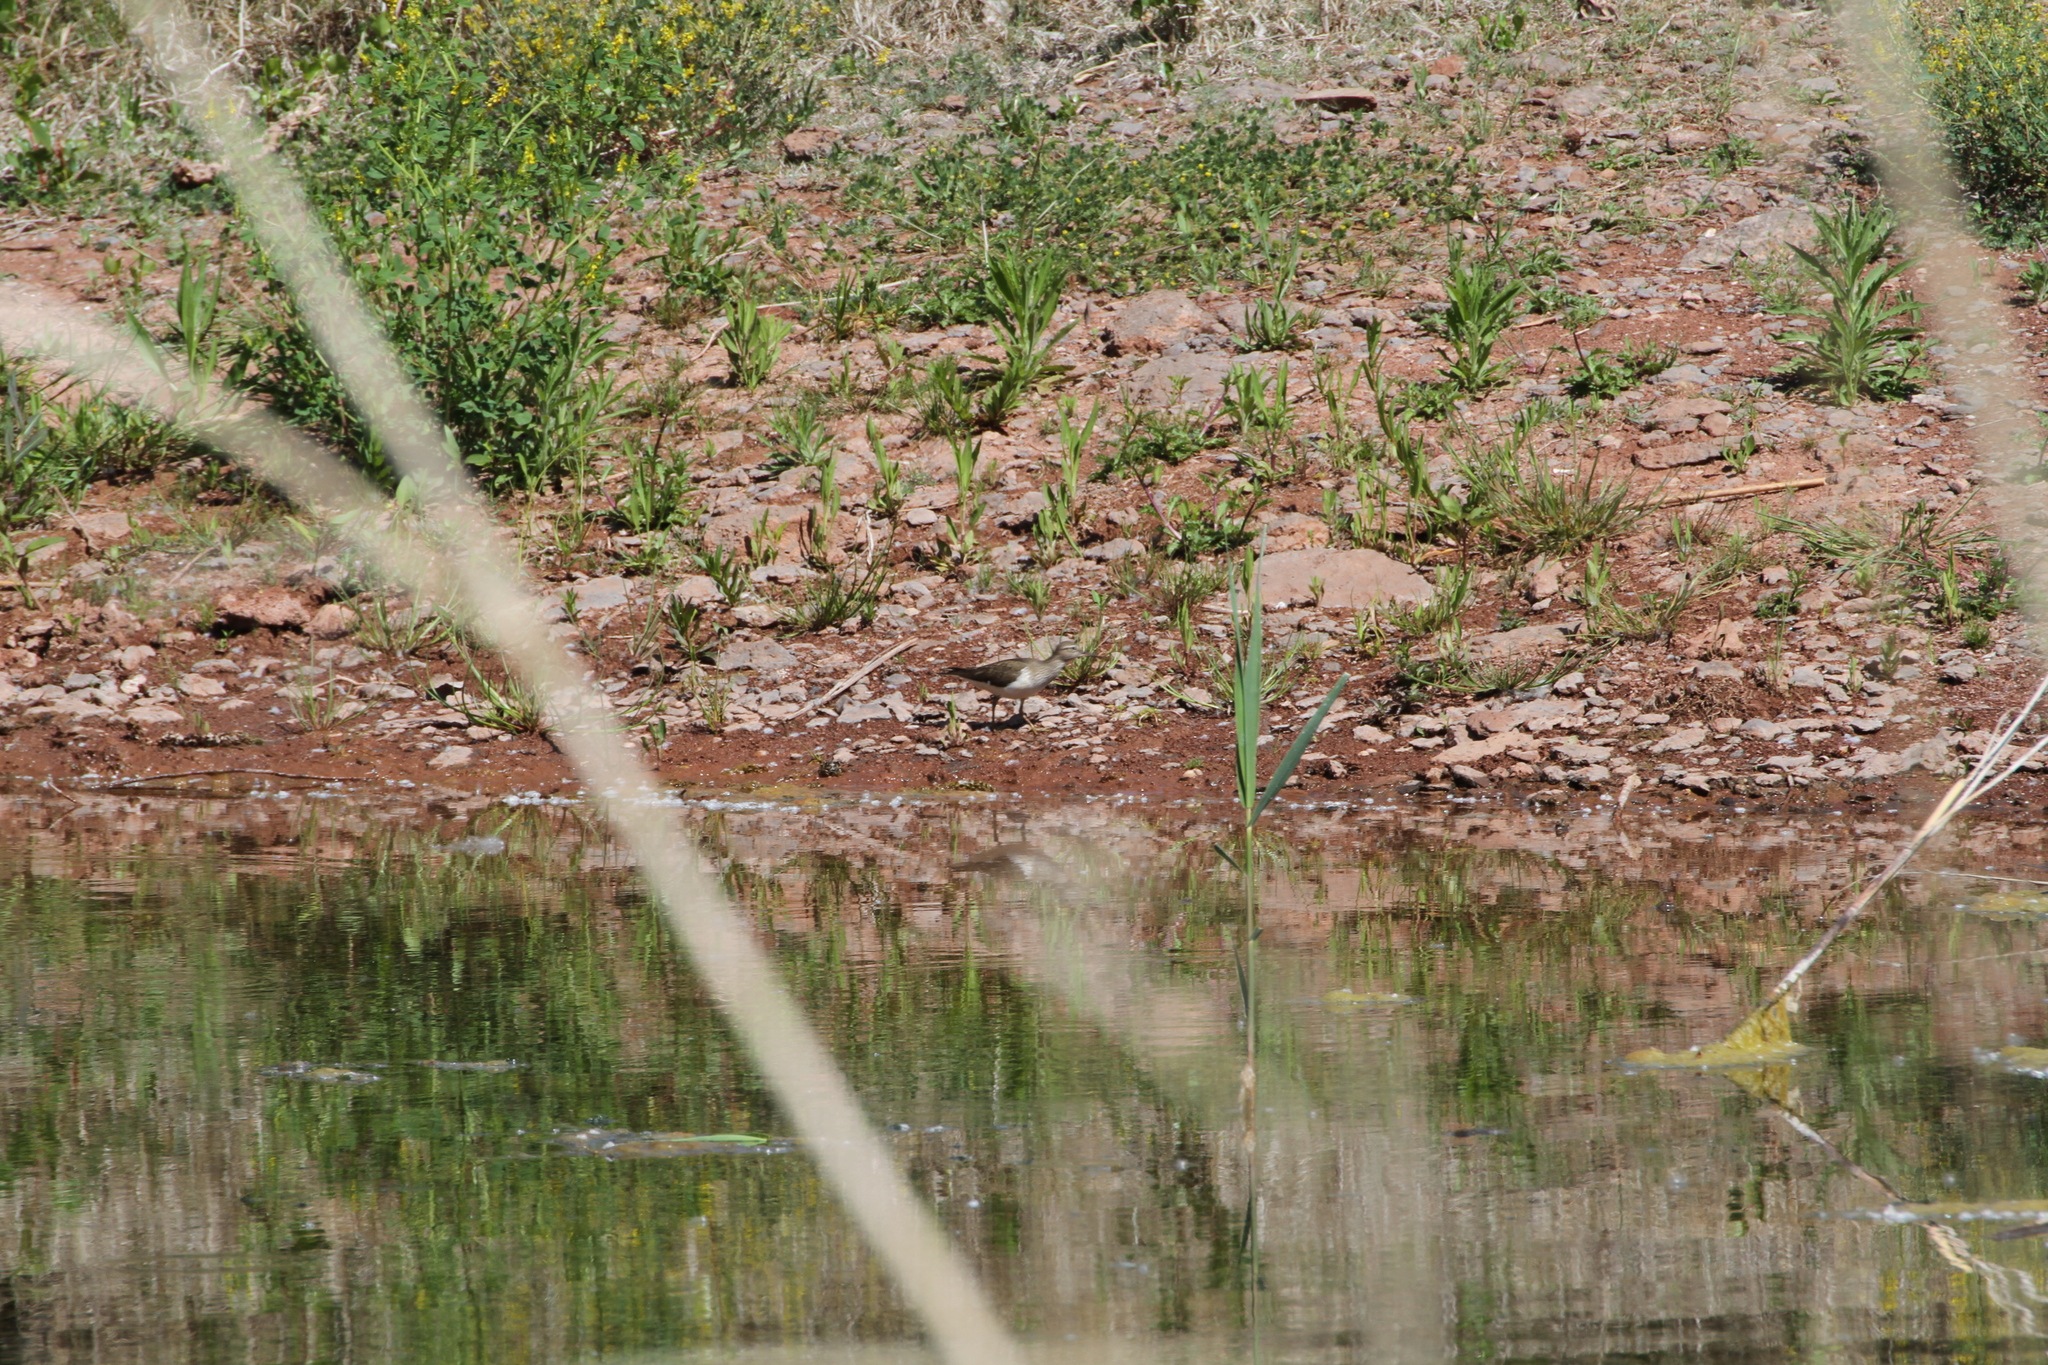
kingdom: Animalia
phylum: Chordata
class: Aves
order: Charadriiformes
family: Scolopacidae
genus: Actitis
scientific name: Actitis hypoleucos
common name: Common sandpiper
